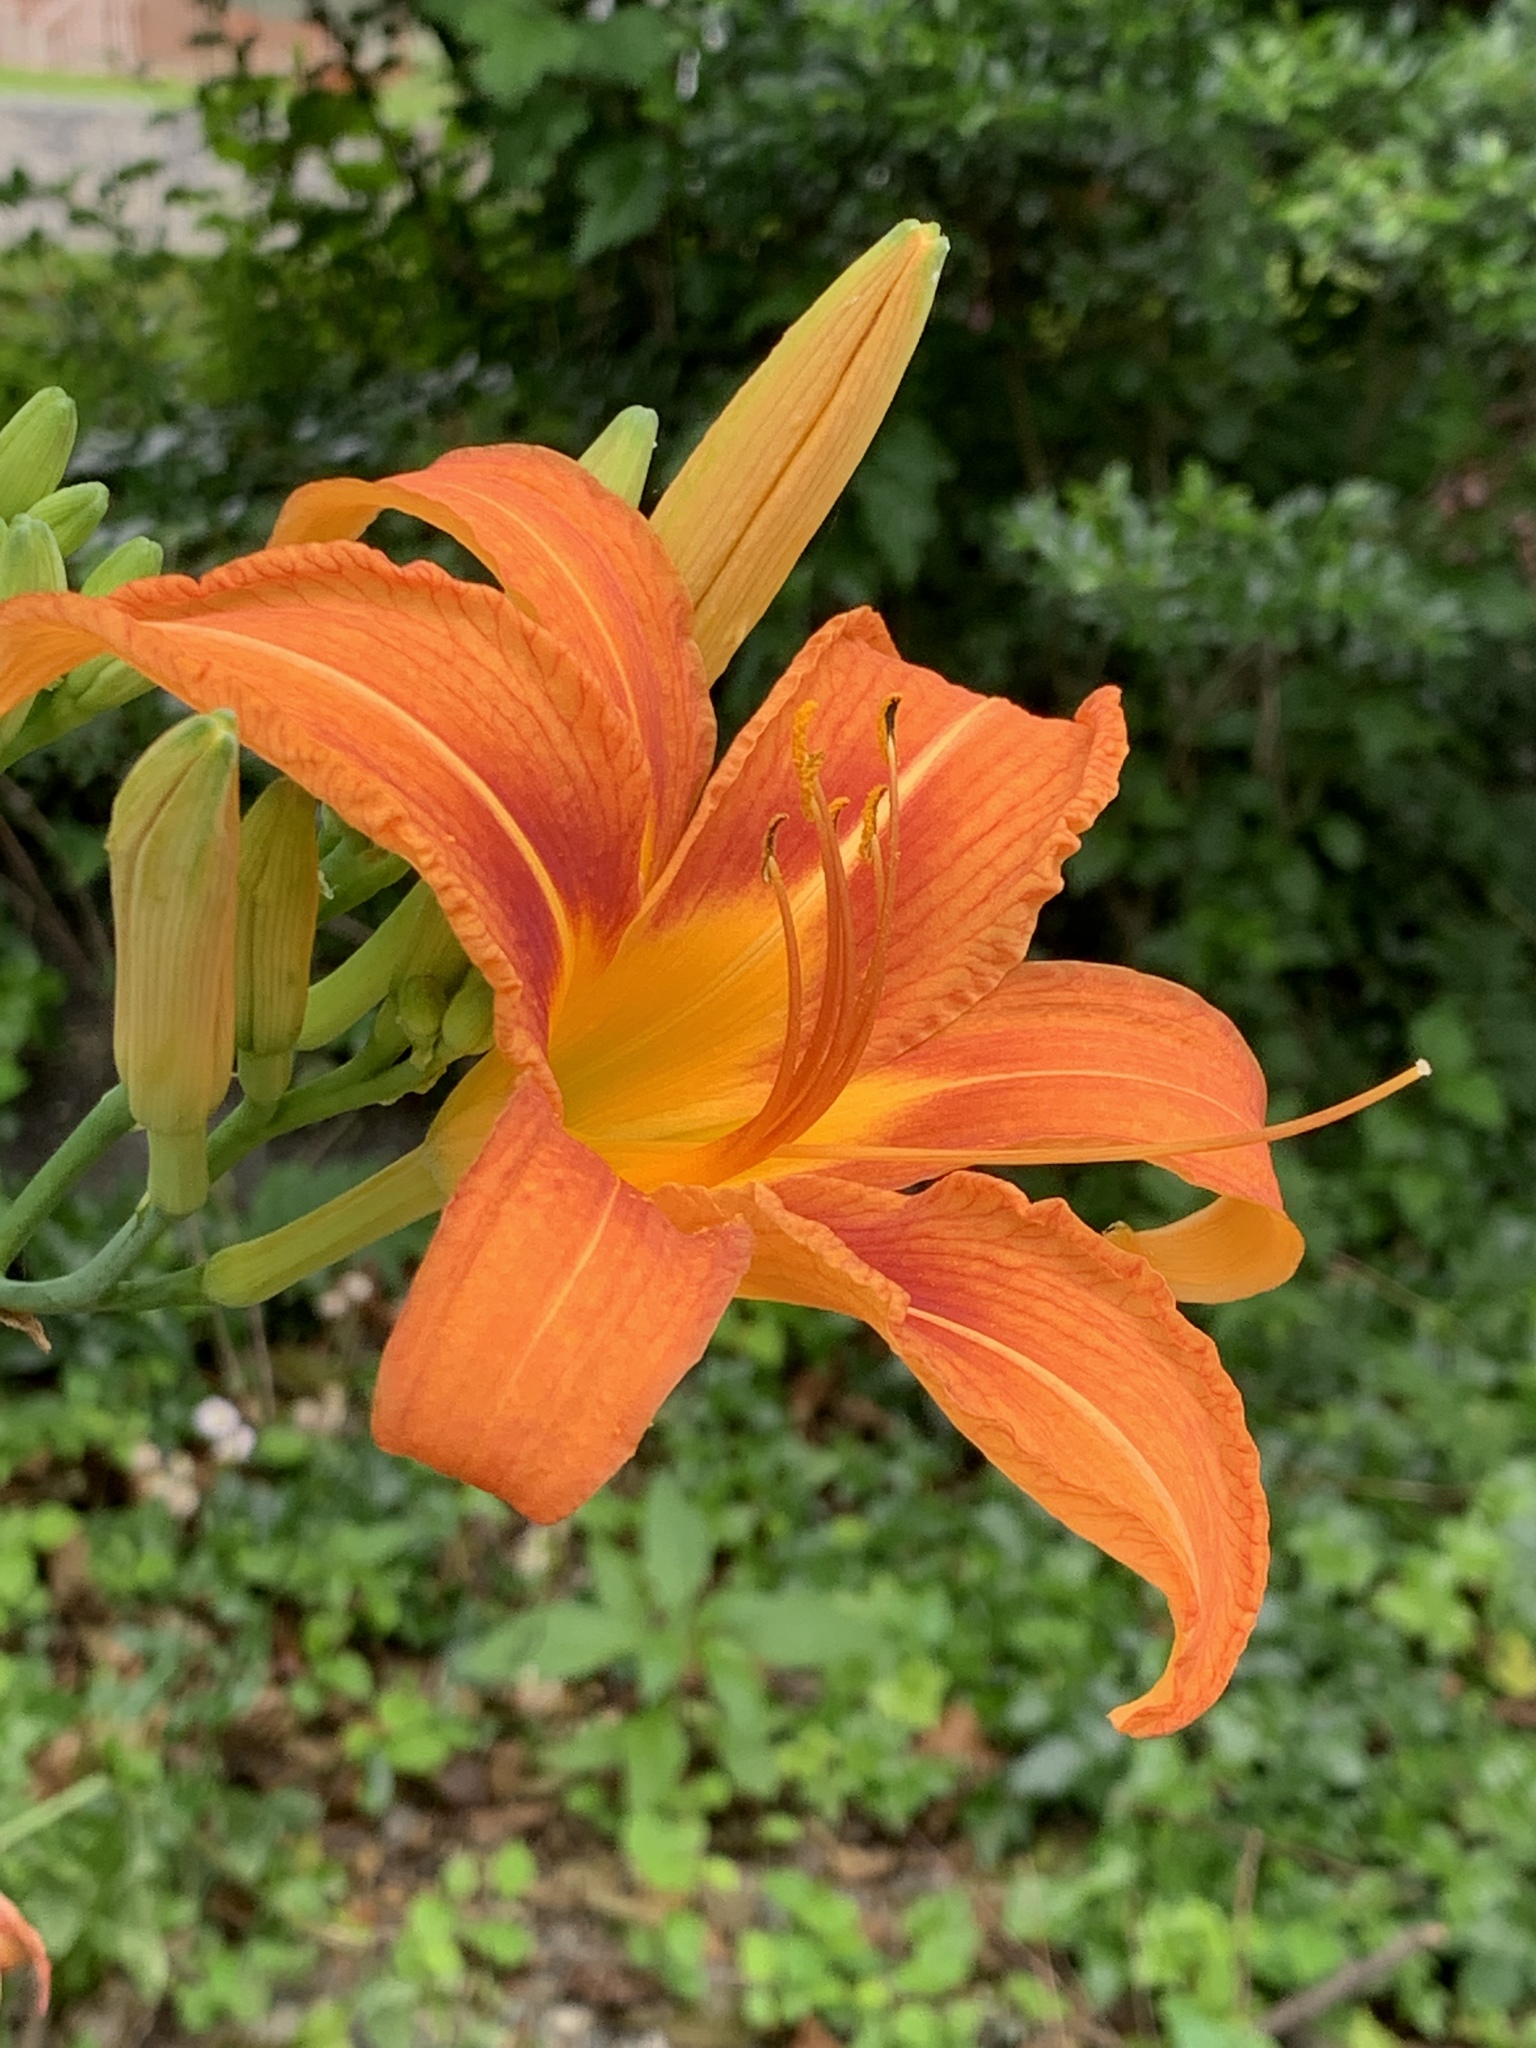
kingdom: Plantae
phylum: Tracheophyta
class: Liliopsida
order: Asparagales
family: Asphodelaceae
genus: Hemerocallis
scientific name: Hemerocallis fulva
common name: Orange day-lily
